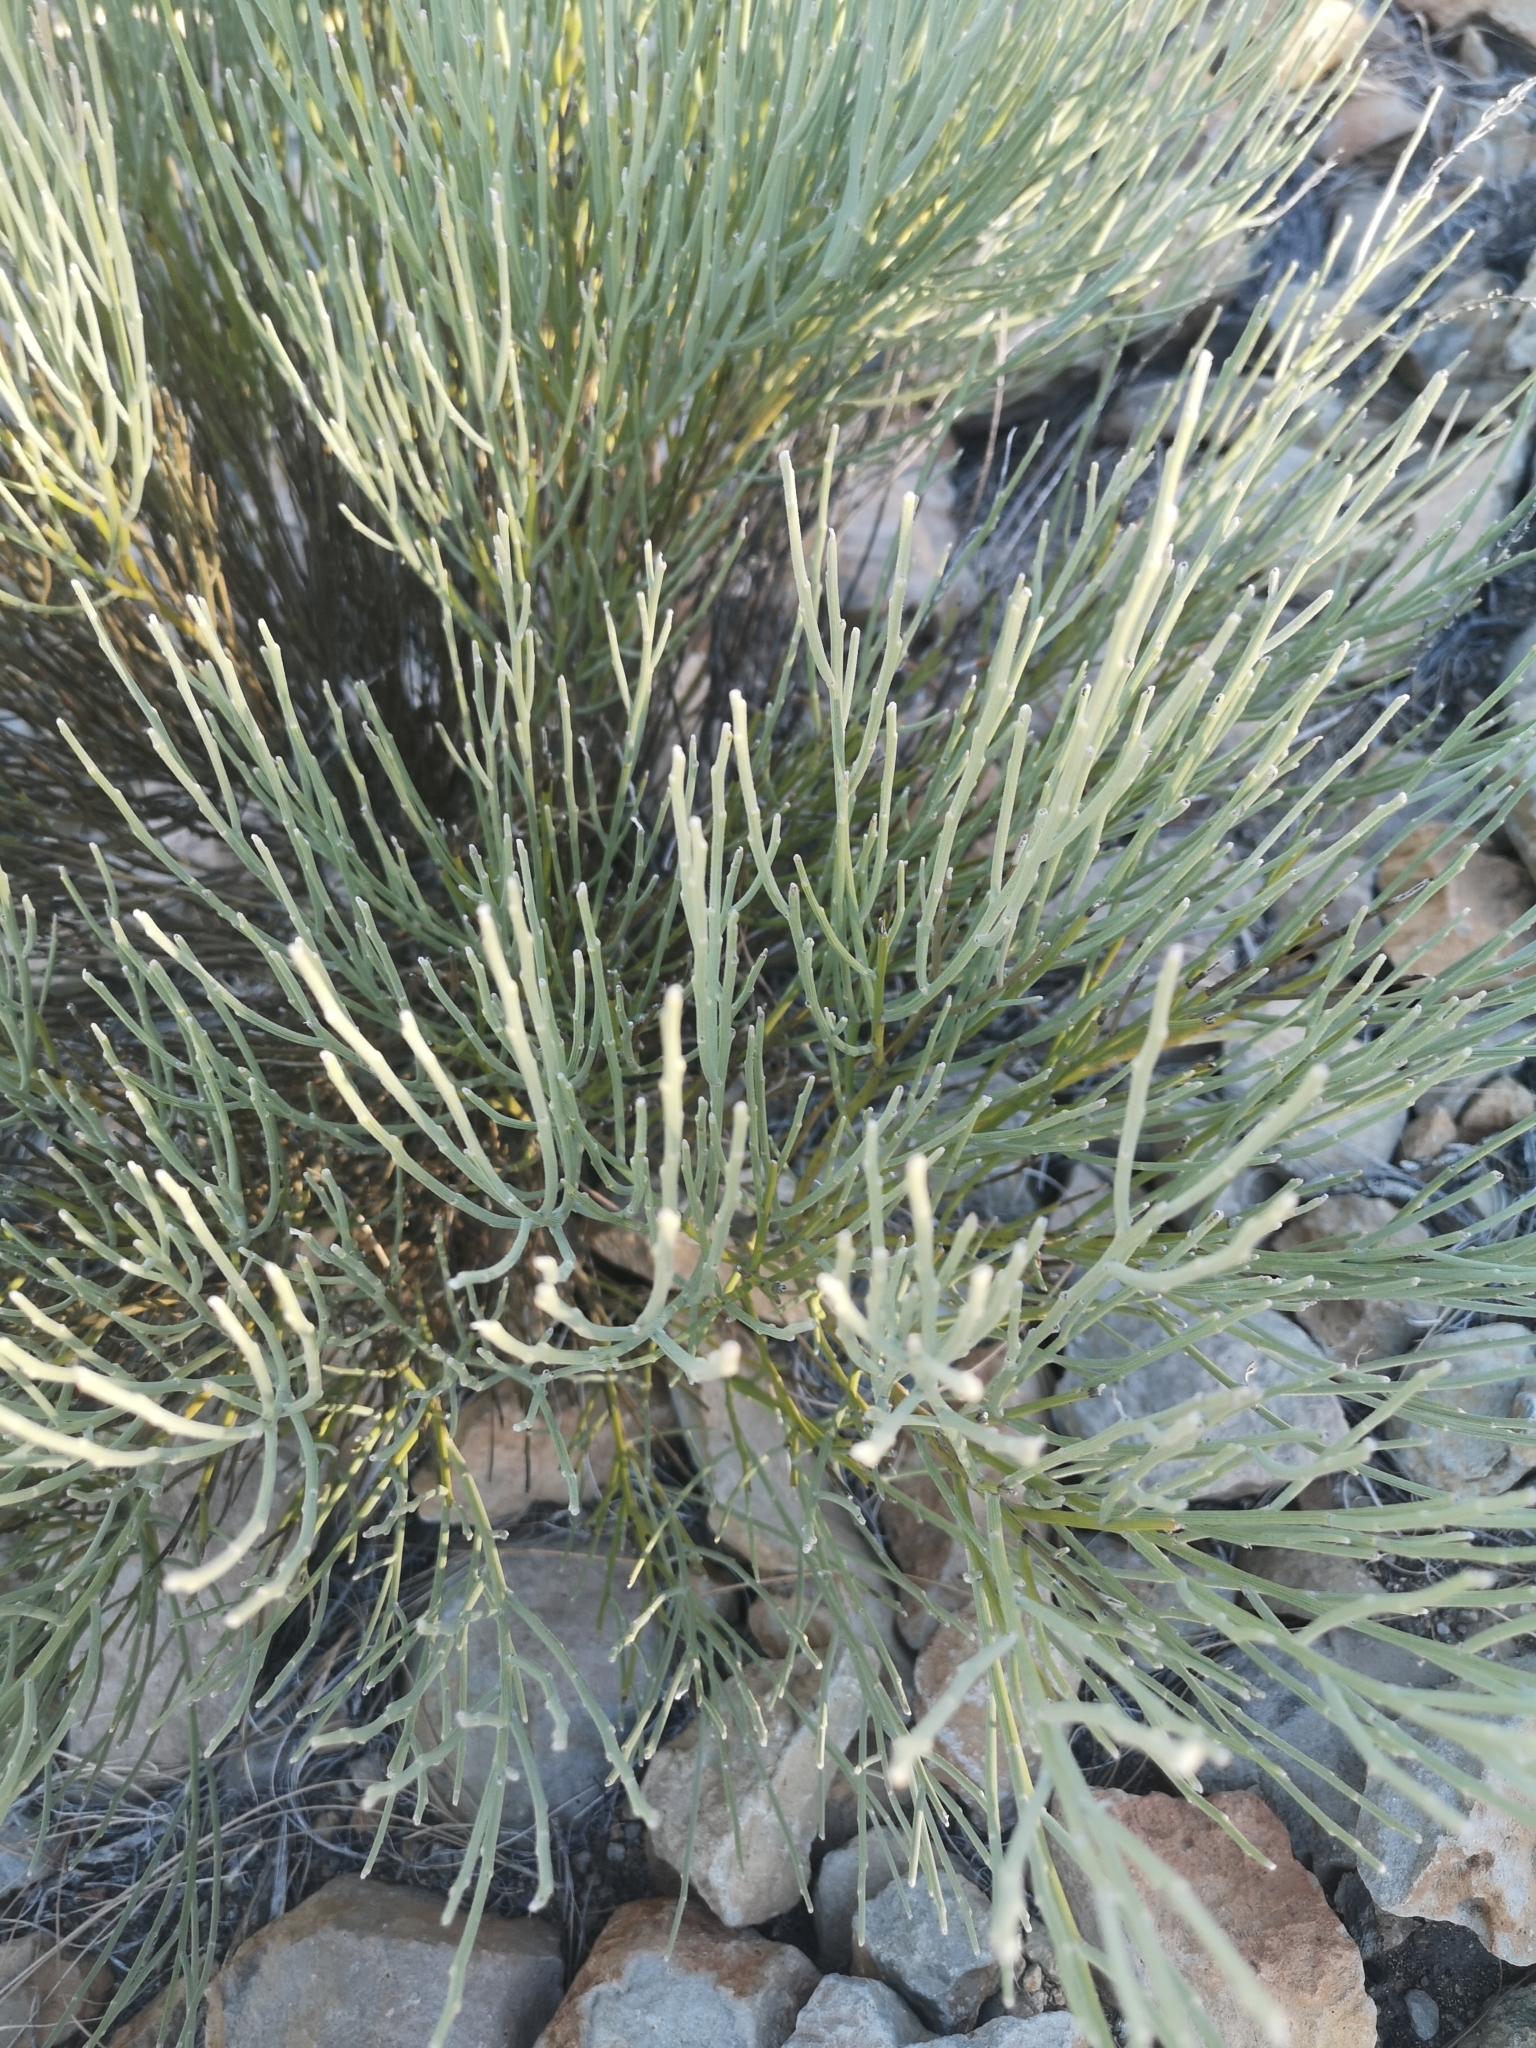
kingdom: Plantae
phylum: Tracheophyta
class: Magnoliopsida
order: Fabales
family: Fabaceae
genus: Cytisus
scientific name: Cytisus supranubius
